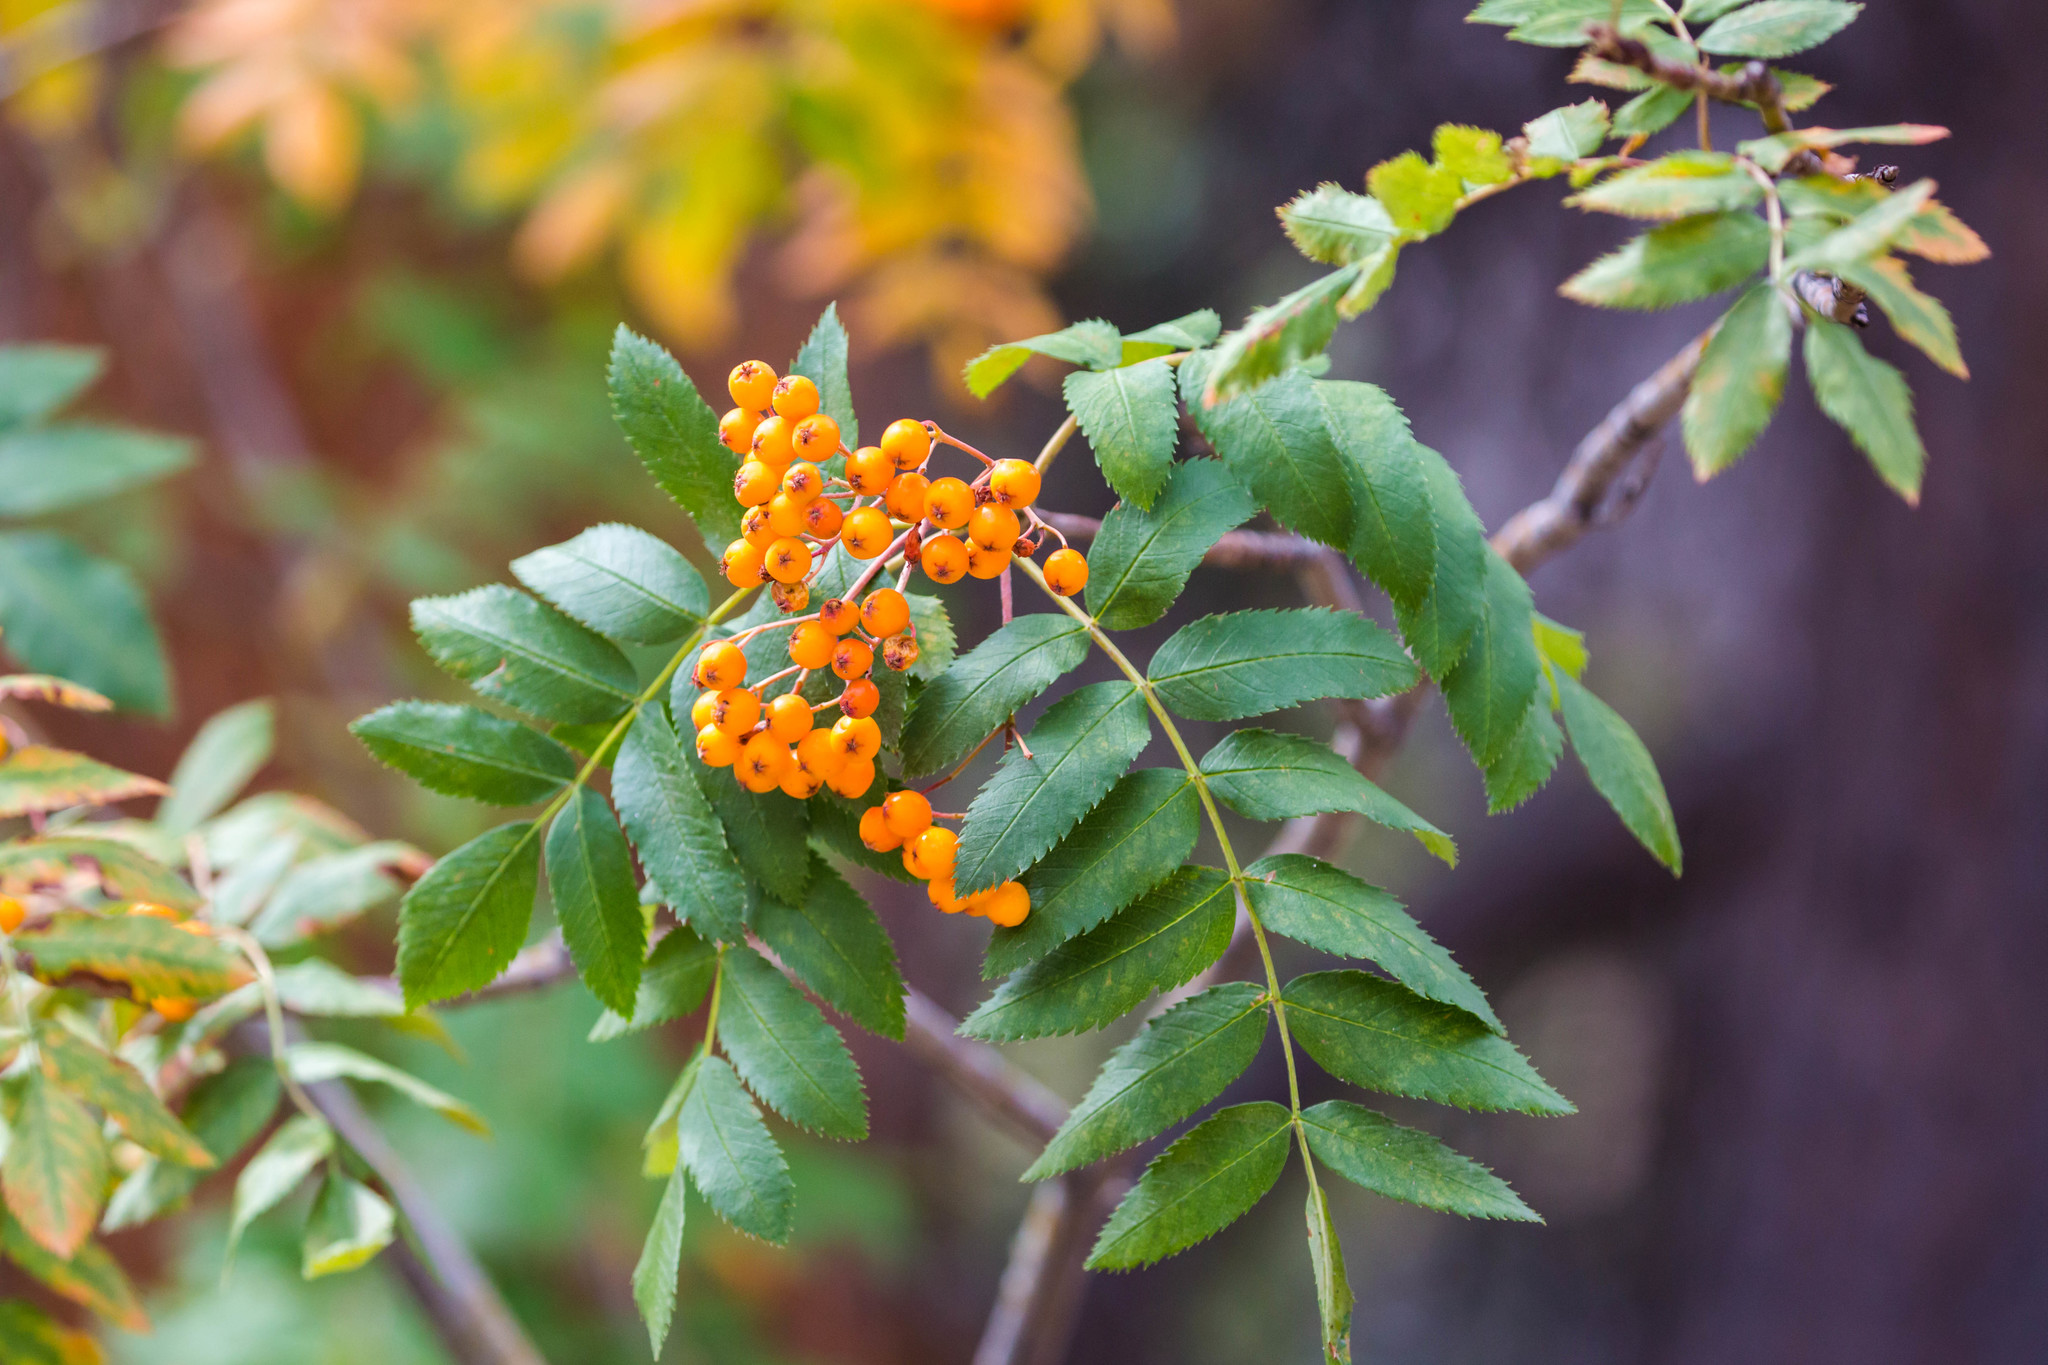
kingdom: Plantae
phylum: Tracheophyta
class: Magnoliopsida
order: Rosales
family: Rosaceae
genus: Sorbus
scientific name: Sorbus scopulina
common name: Greene's mountain-ash
